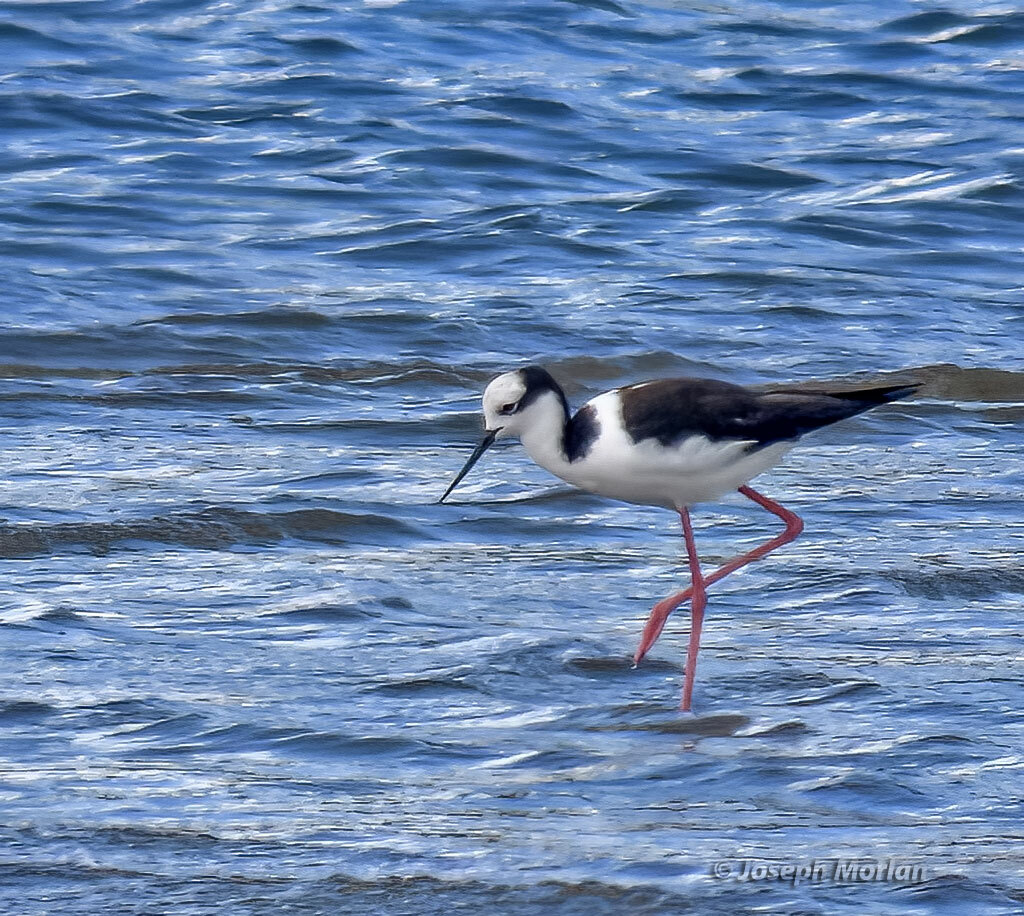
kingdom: Animalia
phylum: Chordata
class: Aves
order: Charadriiformes
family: Recurvirostridae
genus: Himantopus
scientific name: Himantopus mexicanus
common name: Black-necked stilt
